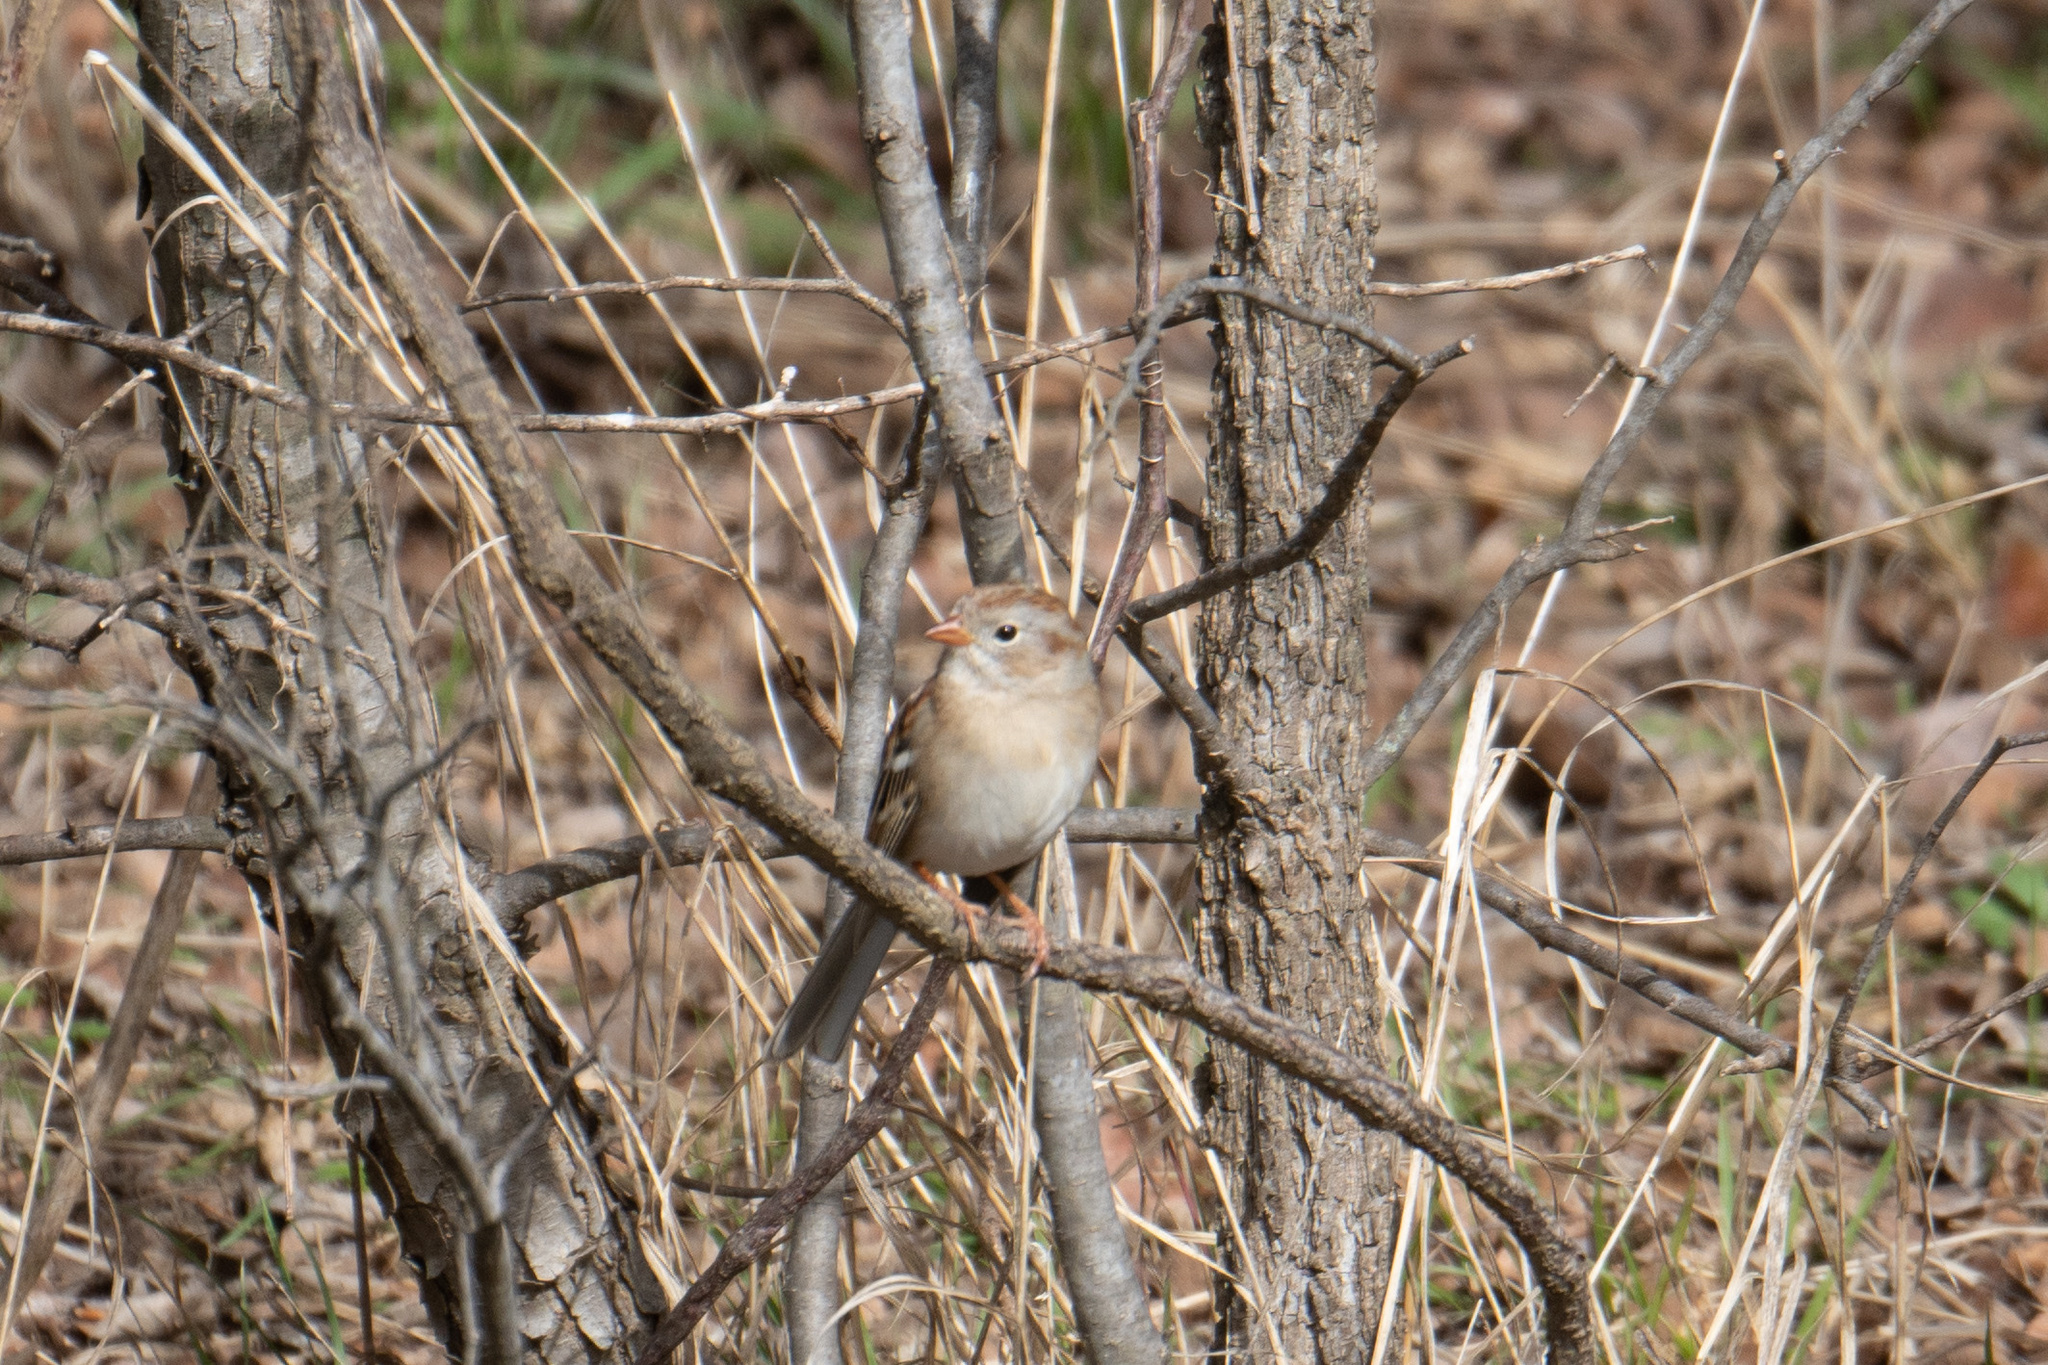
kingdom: Animalia
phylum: Chordata
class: Aves
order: Passeriformes
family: Passerellidae
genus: Spizella
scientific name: Spizella pusilla
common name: Field sparrow
